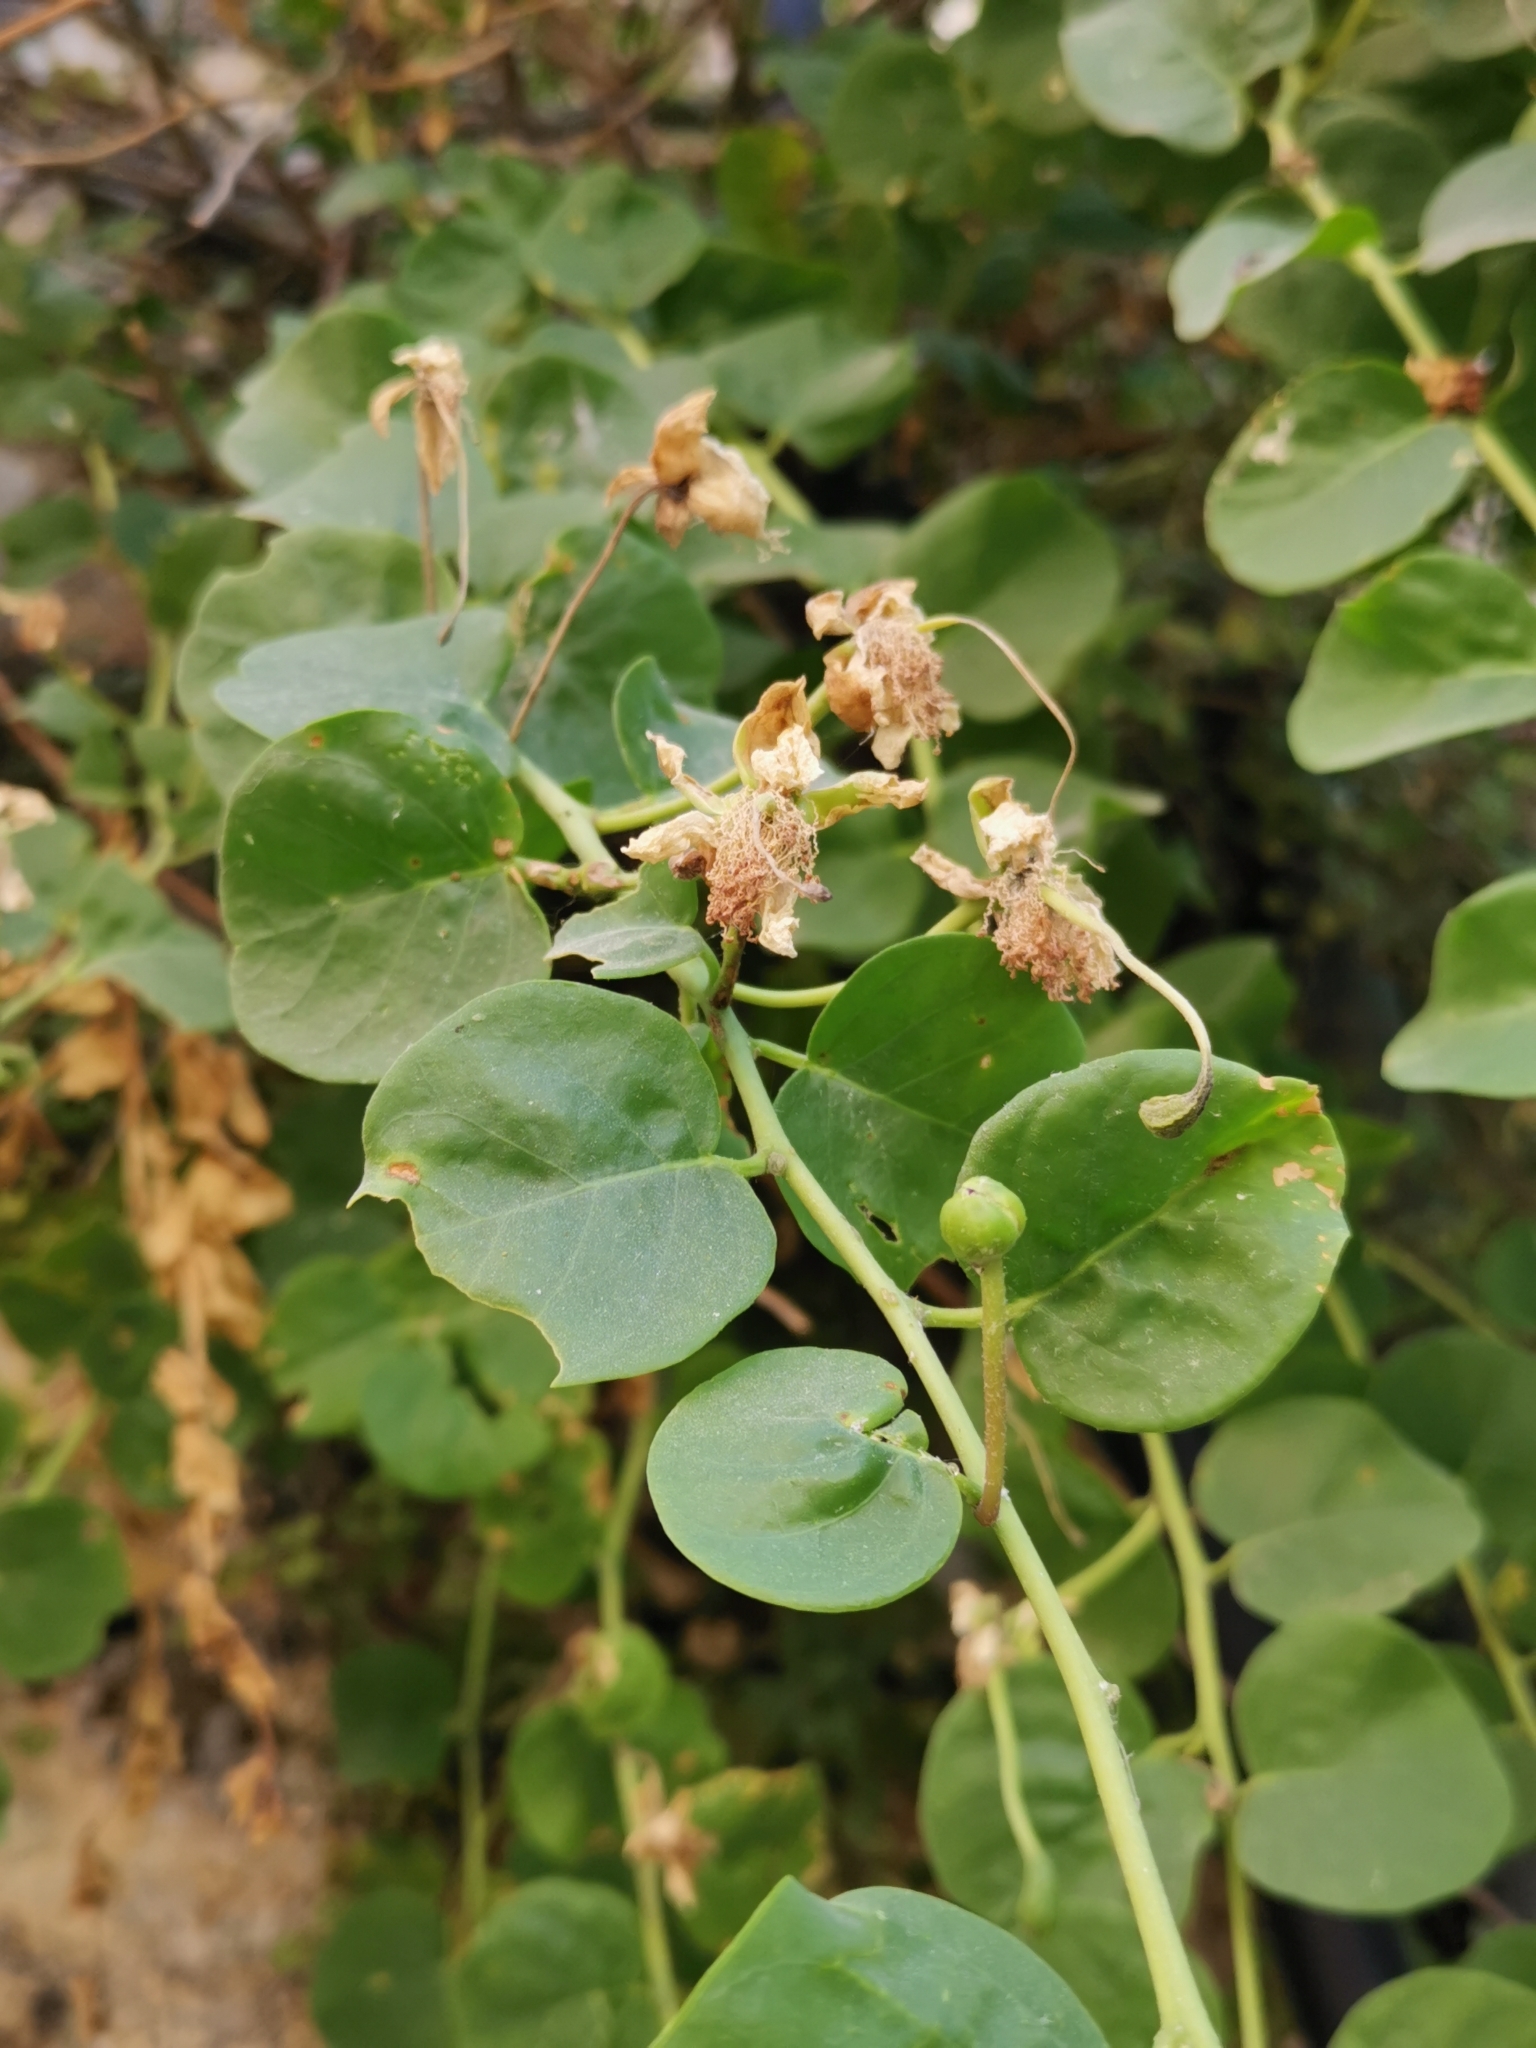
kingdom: Plantae
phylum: Tracheophyta
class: Magnoliopsida
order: Brassicales
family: Capparaceae
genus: Capparis
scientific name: Capparis orientalis
